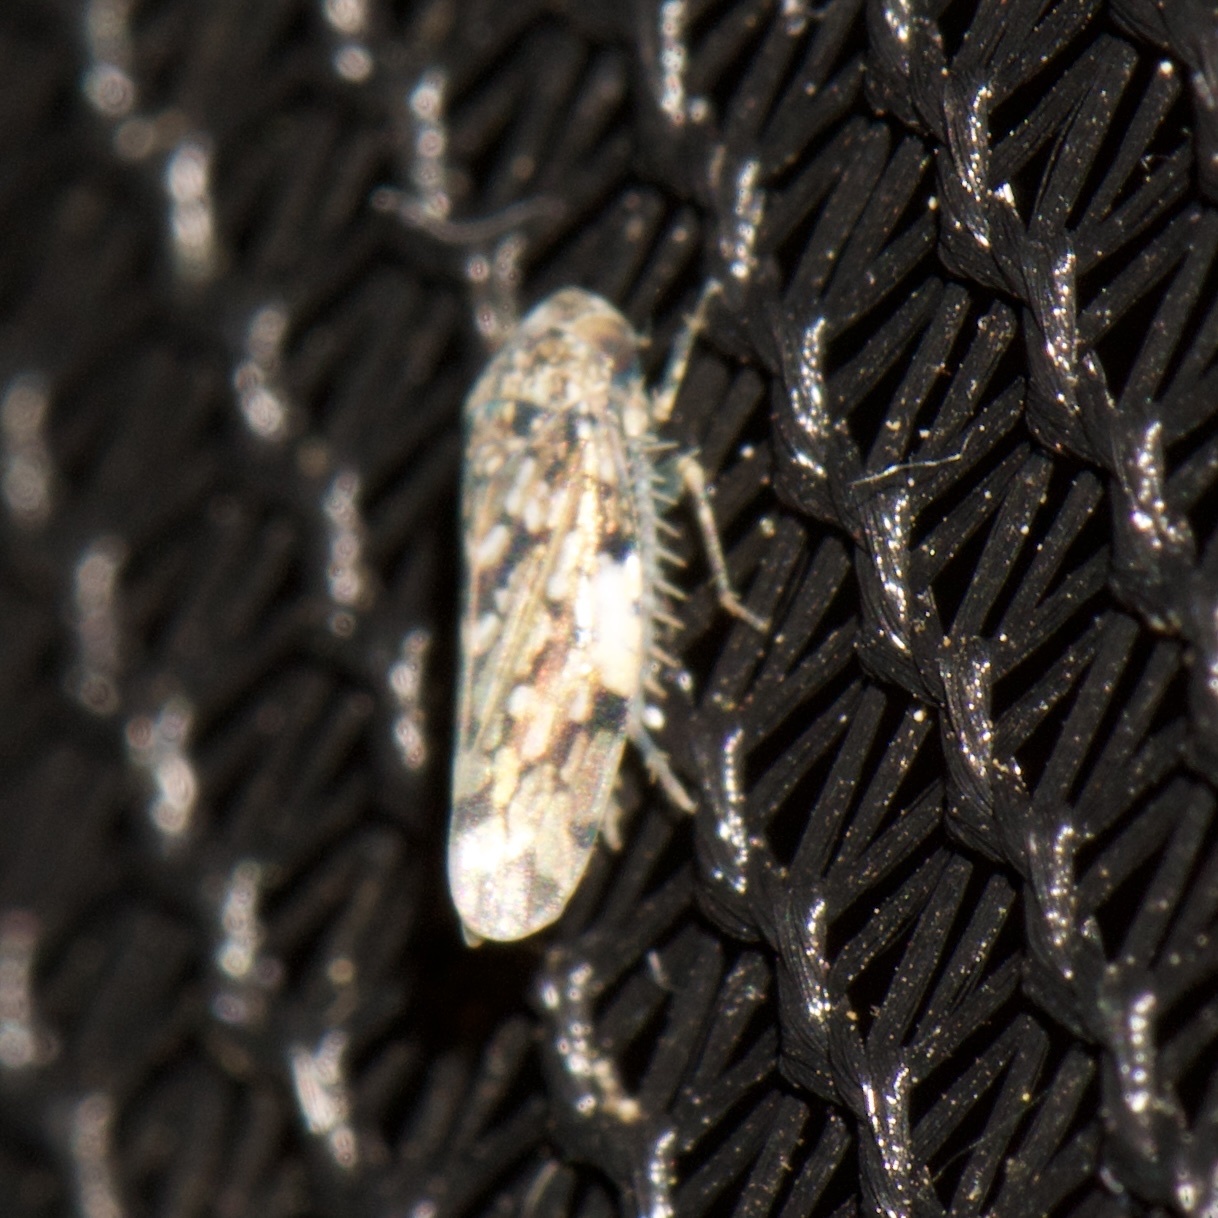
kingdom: Animalia
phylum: Arthropoda
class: Insecta
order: Hemiptera
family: Cicadellidae
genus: Xestocephalus
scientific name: Xestocephalus tessellatus
